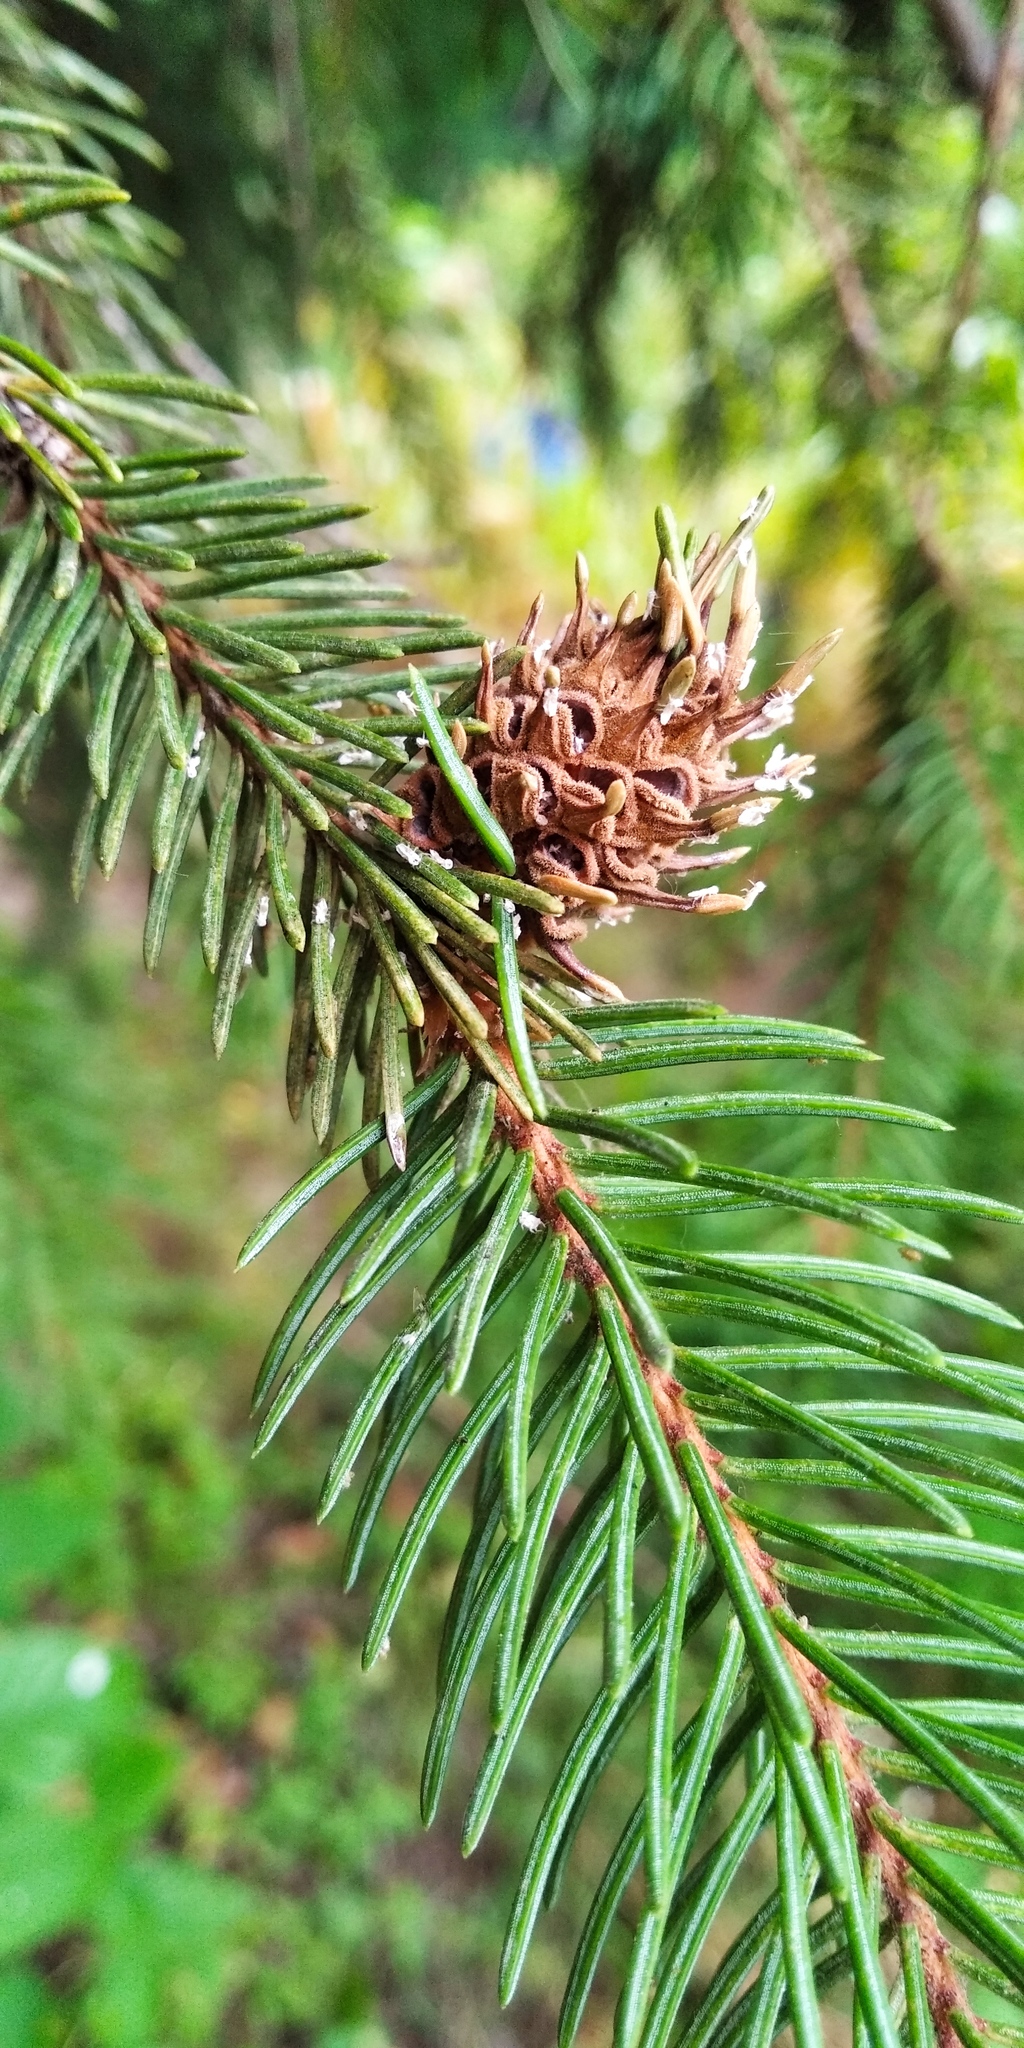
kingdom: Animalia
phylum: Arthropoda
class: Insecta
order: Hemiptera
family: Adelgidae
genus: Adelges
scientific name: Adelges abietis
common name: Eastern spruce gall adelgid
